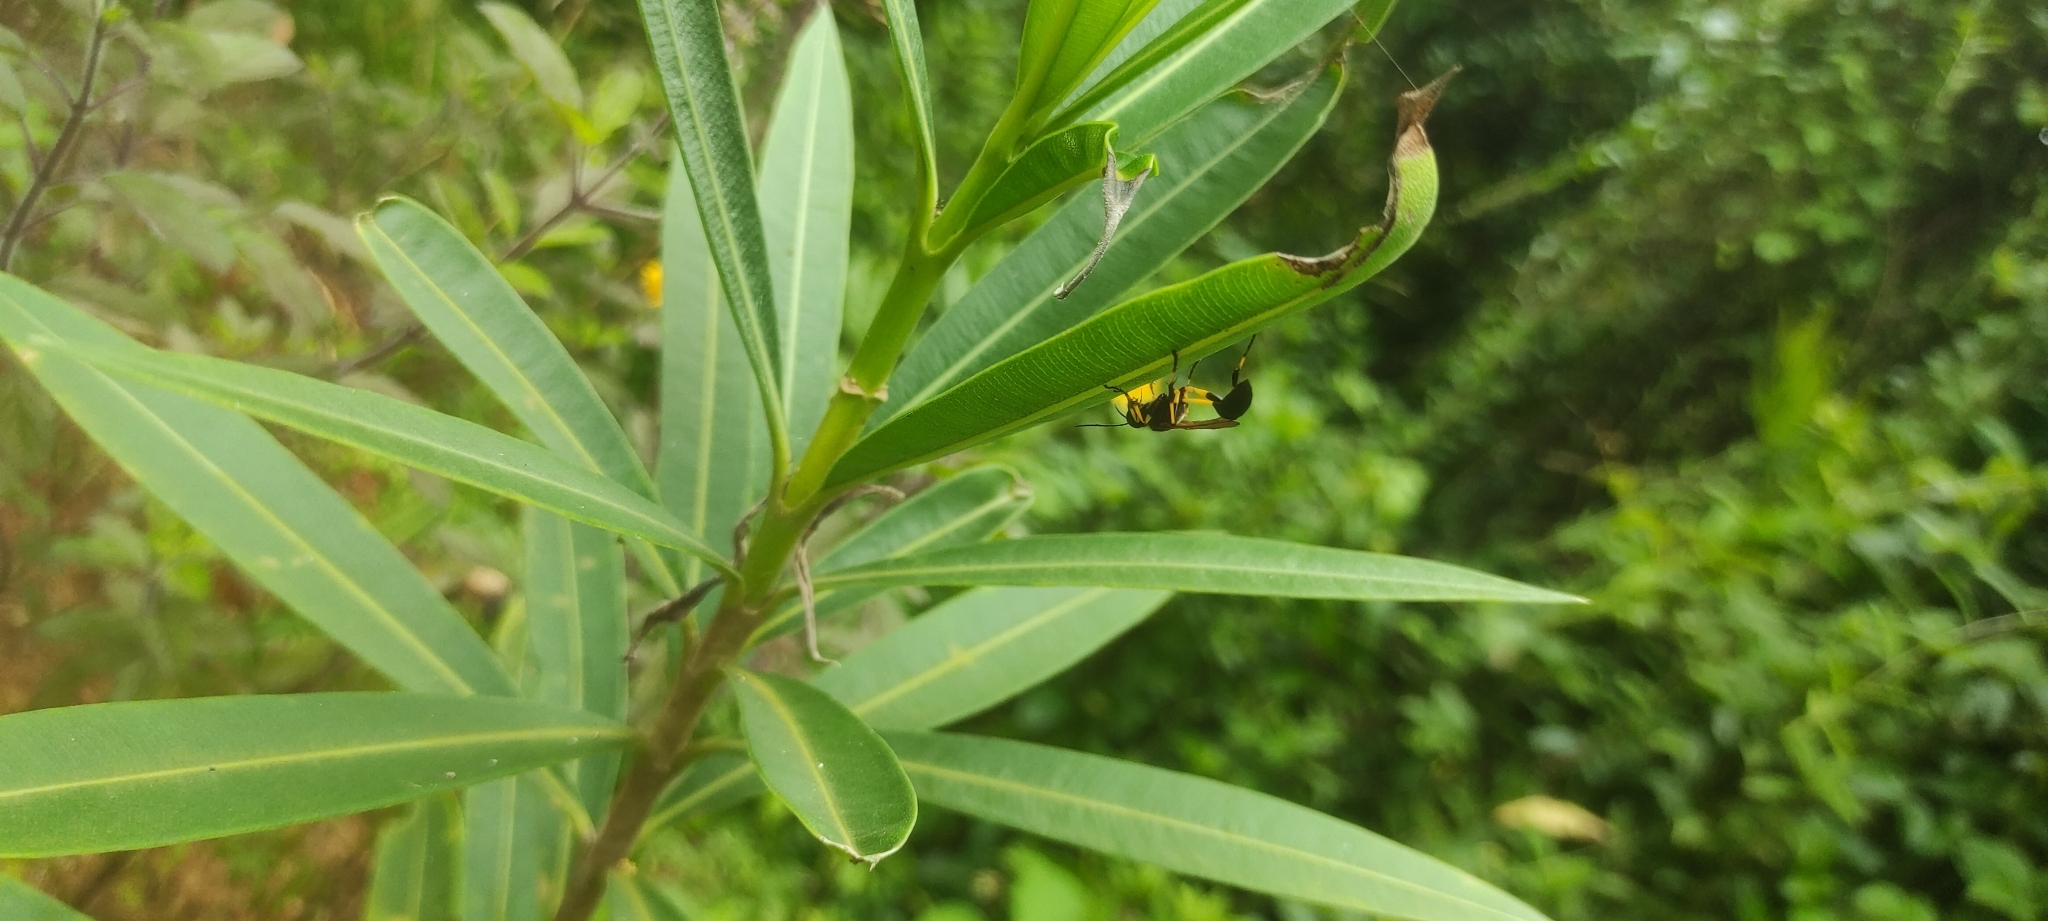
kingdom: Animalia
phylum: Arthropoda
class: Insecta
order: Hymenoptera
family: Sphecidae
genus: Sceliphron
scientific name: Sceliphron madraspatanum
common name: Mud dauber
